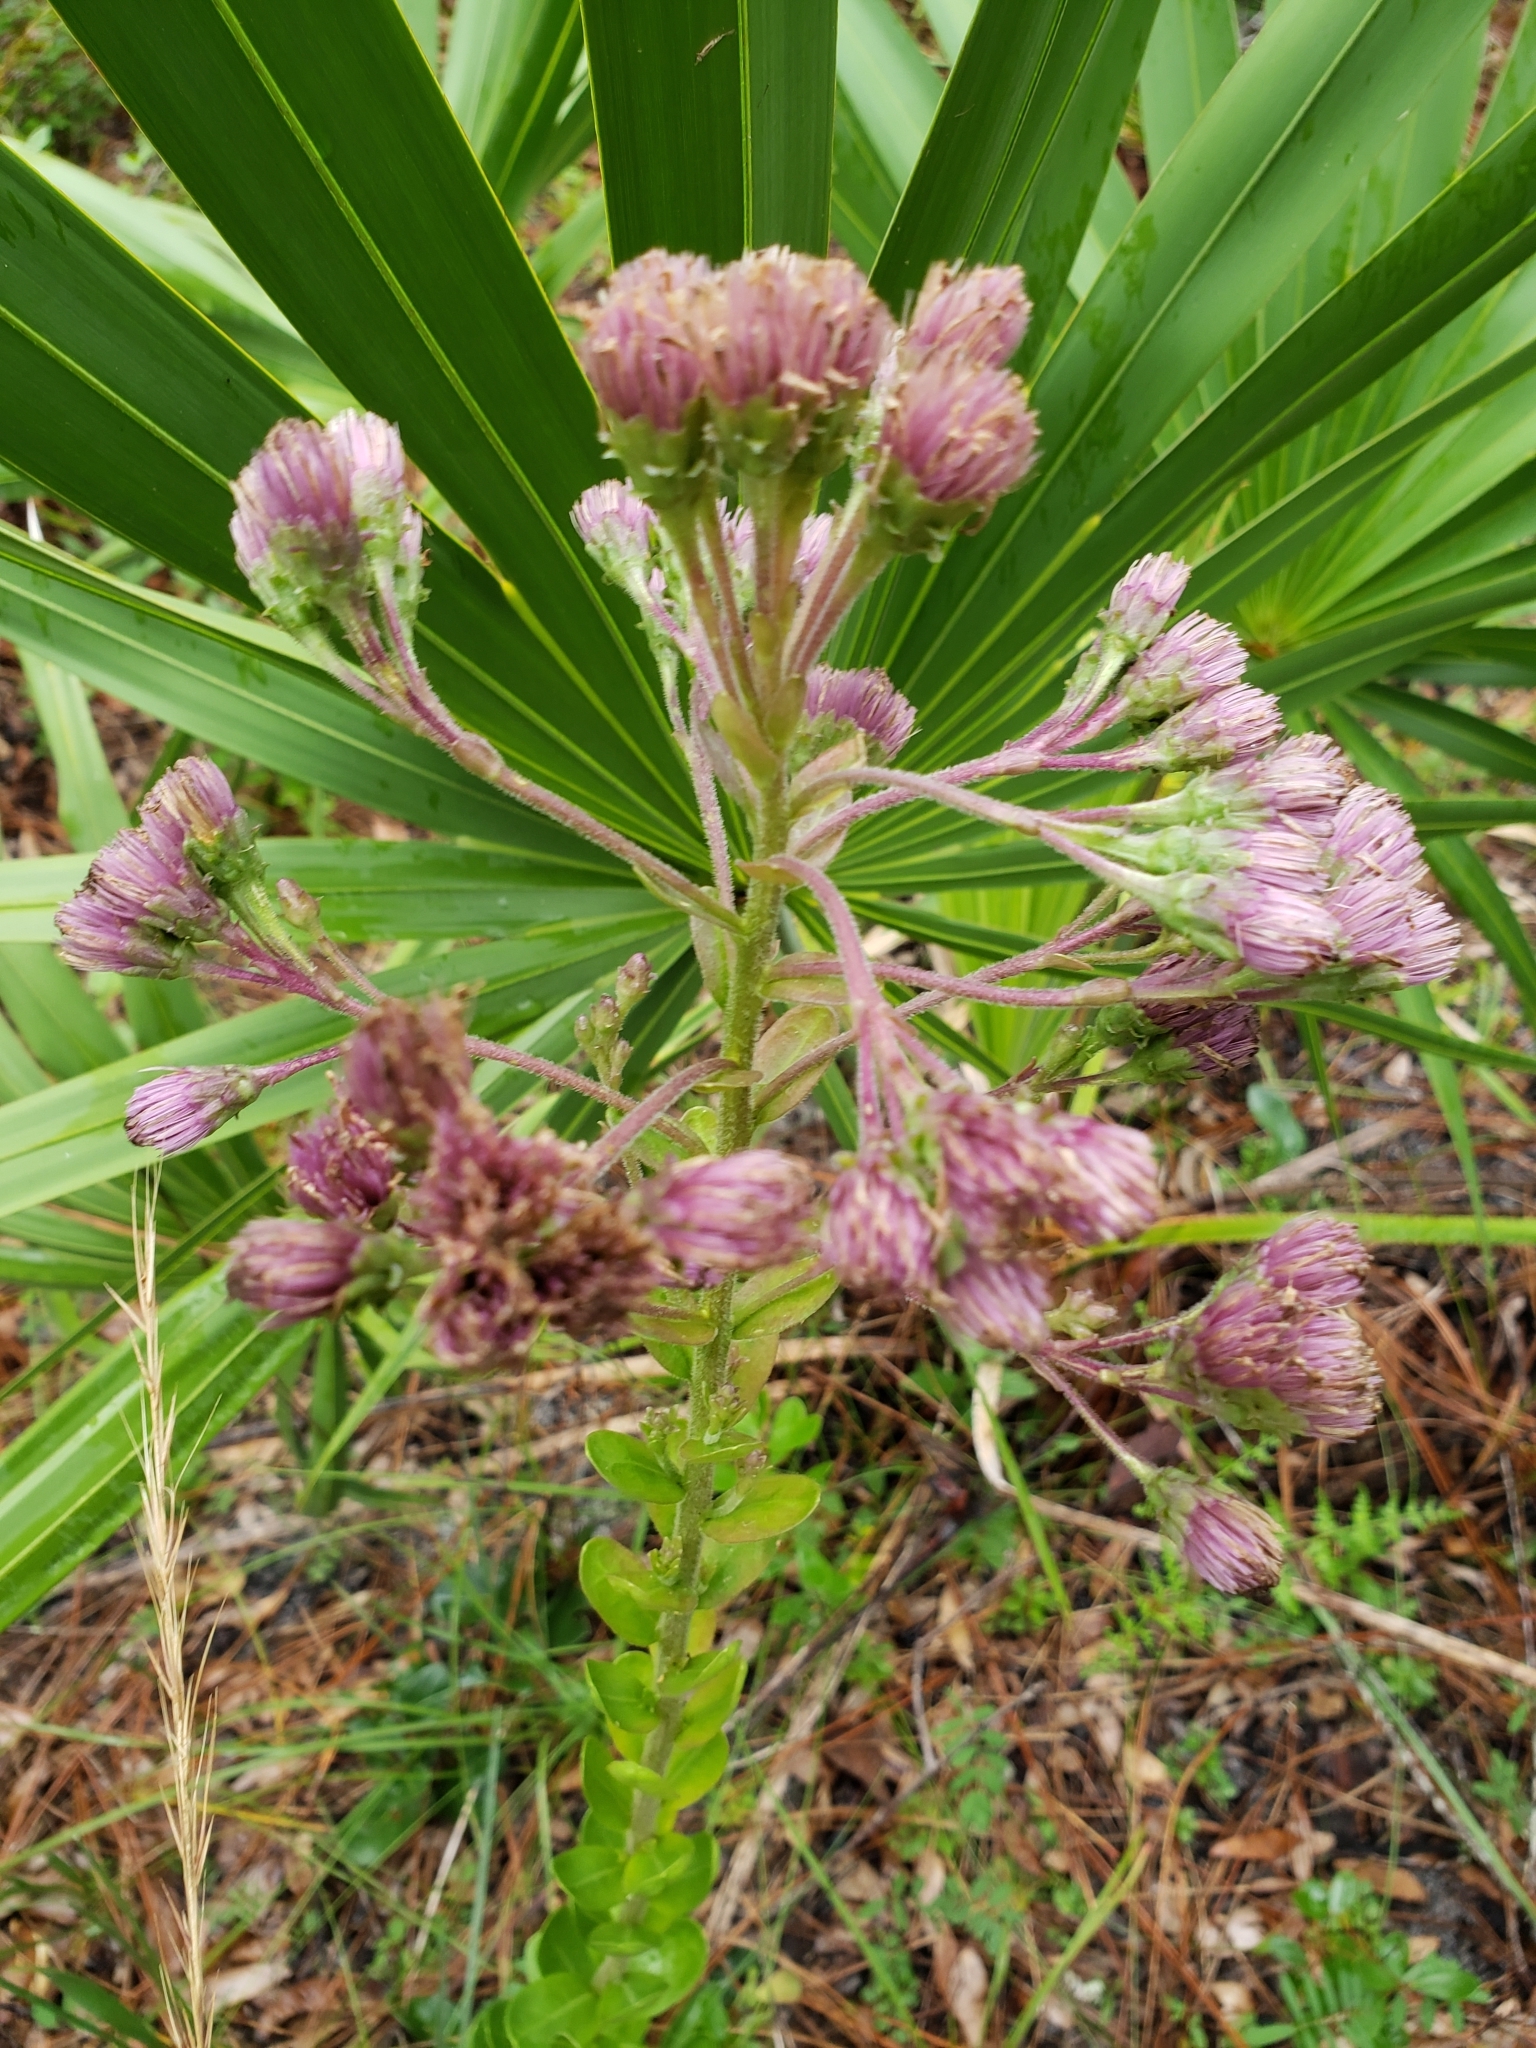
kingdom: Plantae
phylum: Tracheophyta
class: Magnoliopsida
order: Asterales
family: Asteraceae
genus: Carphephorus
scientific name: Carphephorus corymbosus
